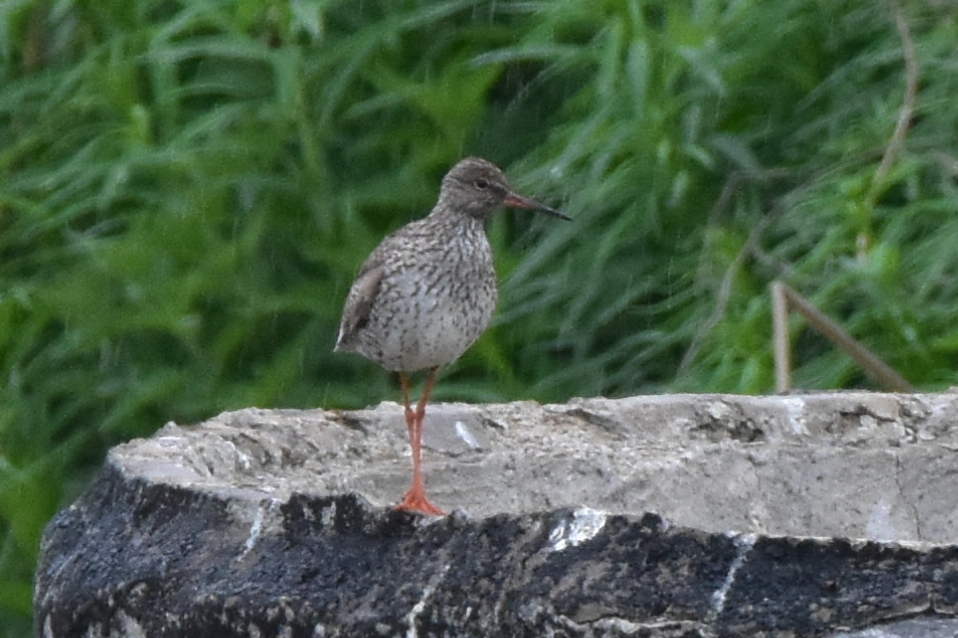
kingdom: Animalia
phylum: Chordata
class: Aves
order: Charadriiformes
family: Scolopacidae
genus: Tringa
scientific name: Tringa totanus
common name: Common redshank
